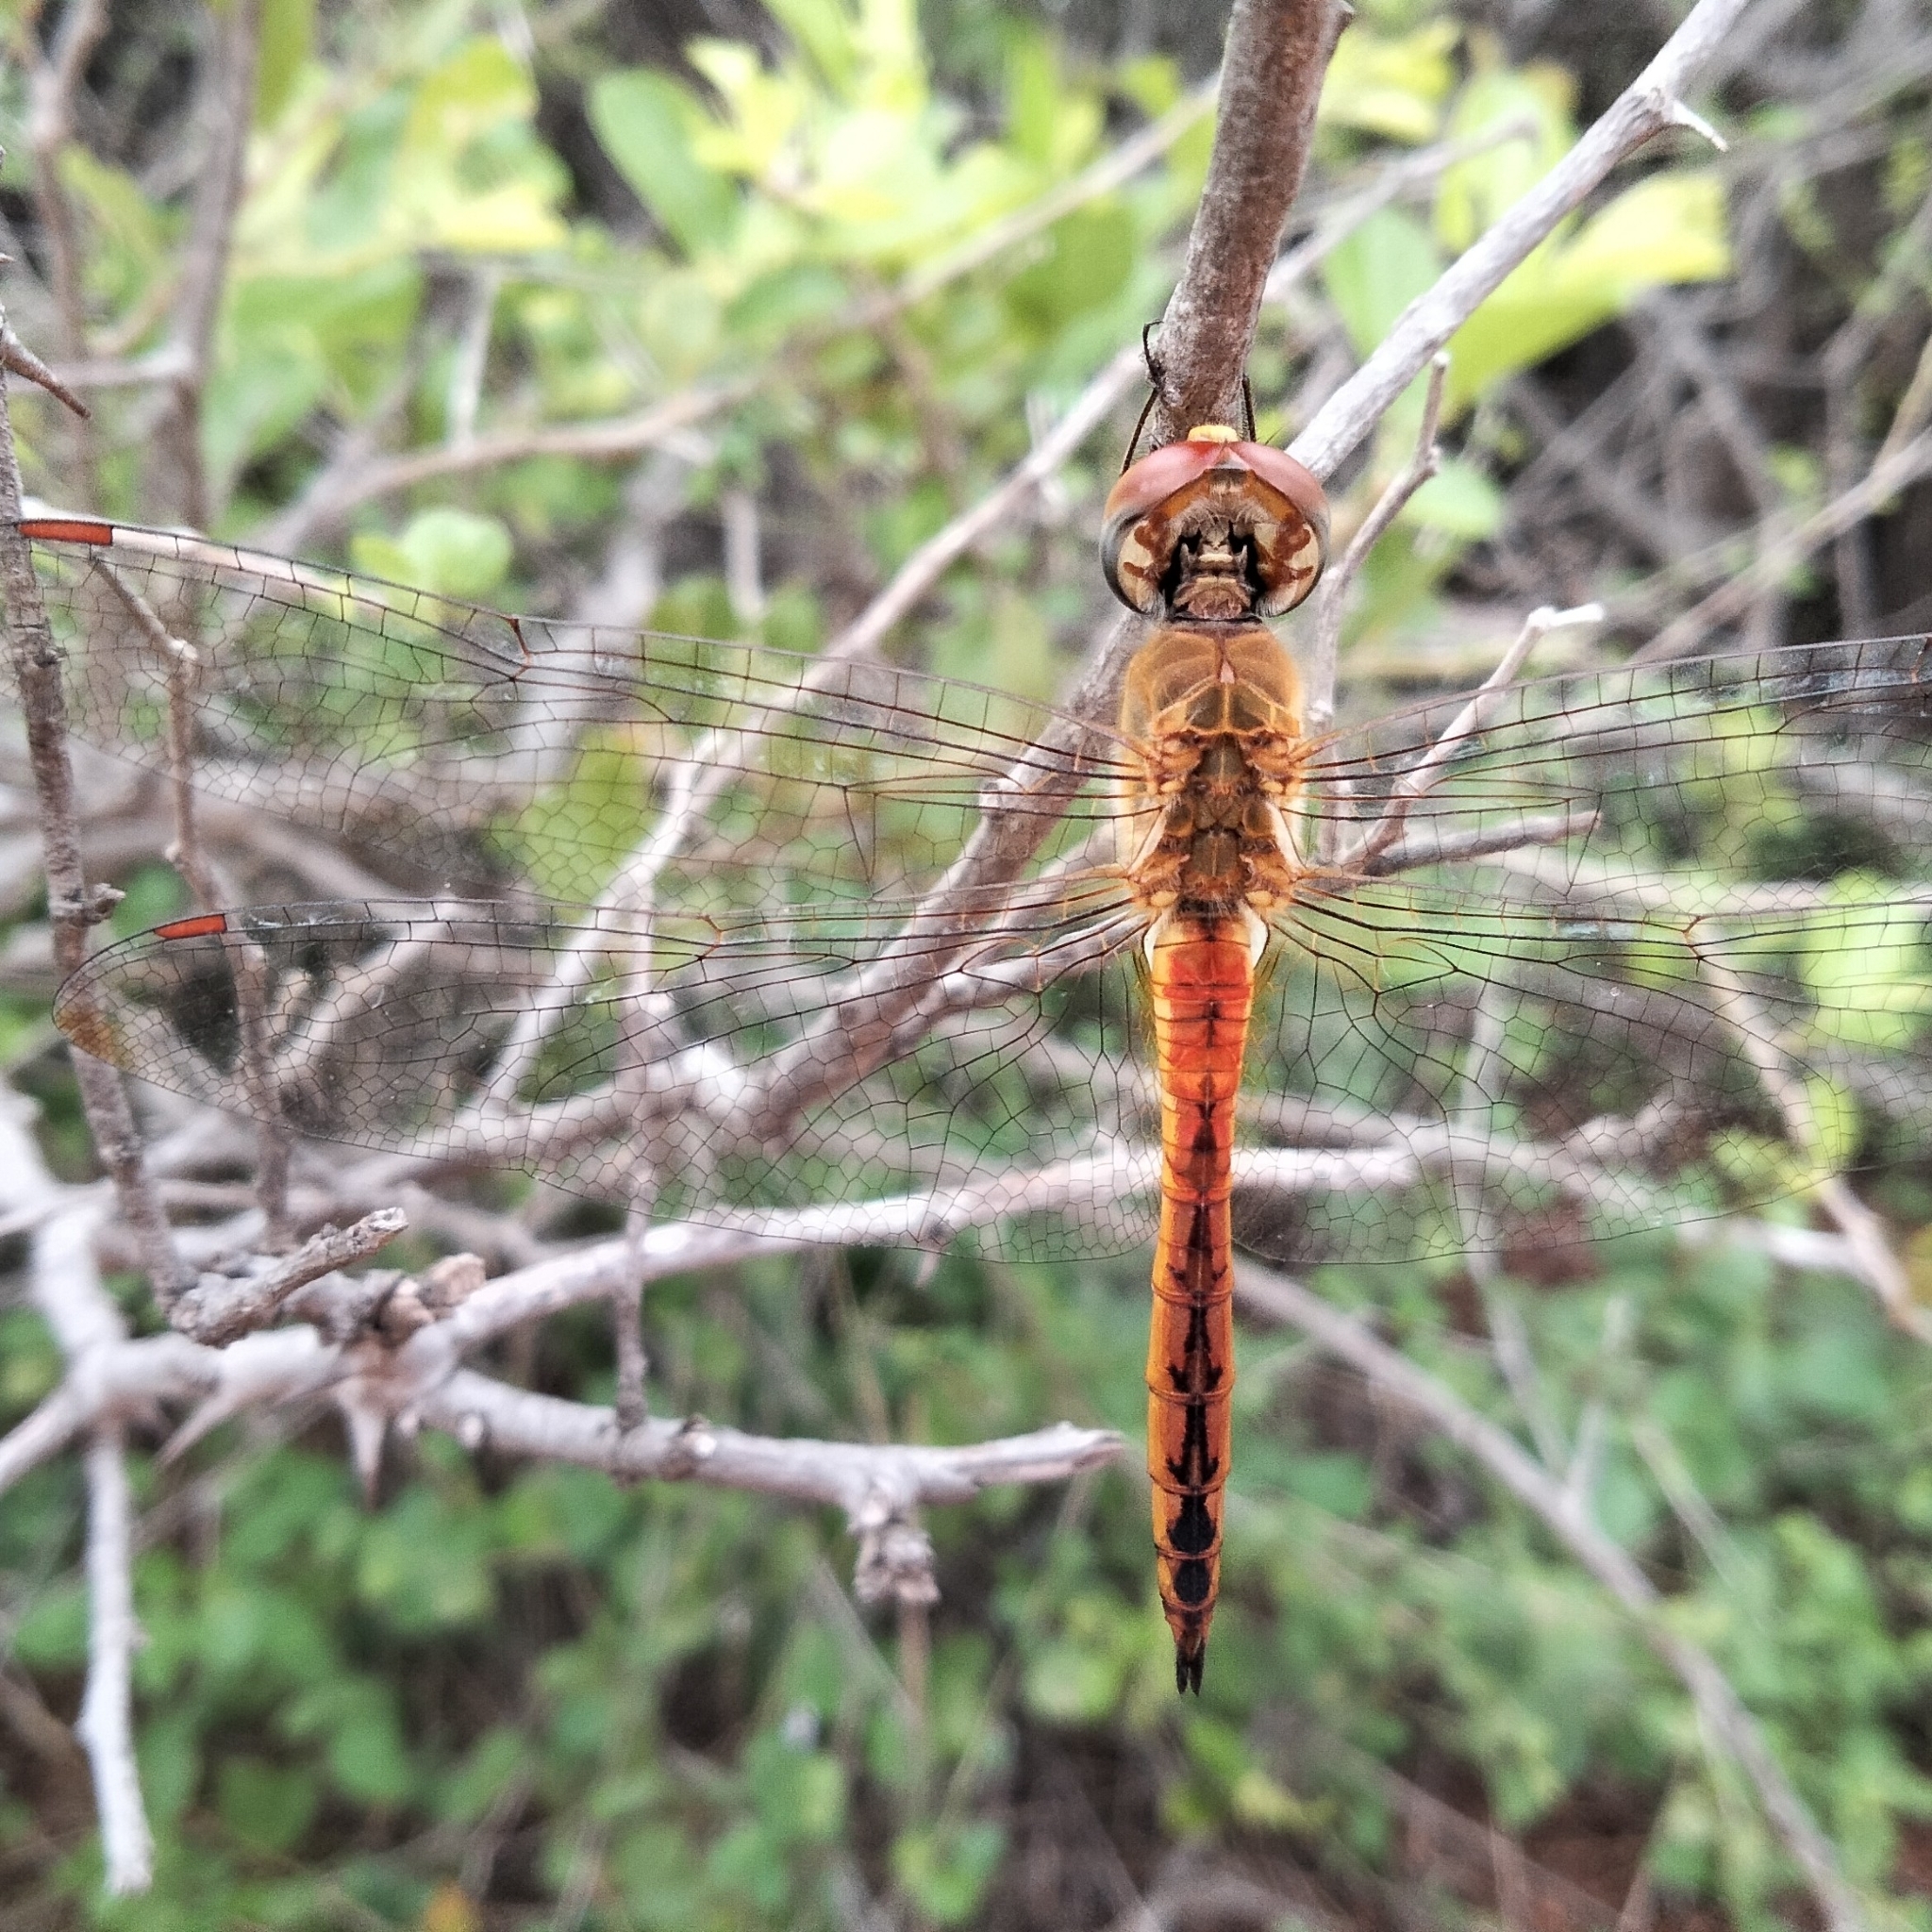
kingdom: Animalia
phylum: Arthropoda
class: Insecta
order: Odonata
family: Libellulidae
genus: Pantala
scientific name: Pantala flavescens
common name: Wandering glider
